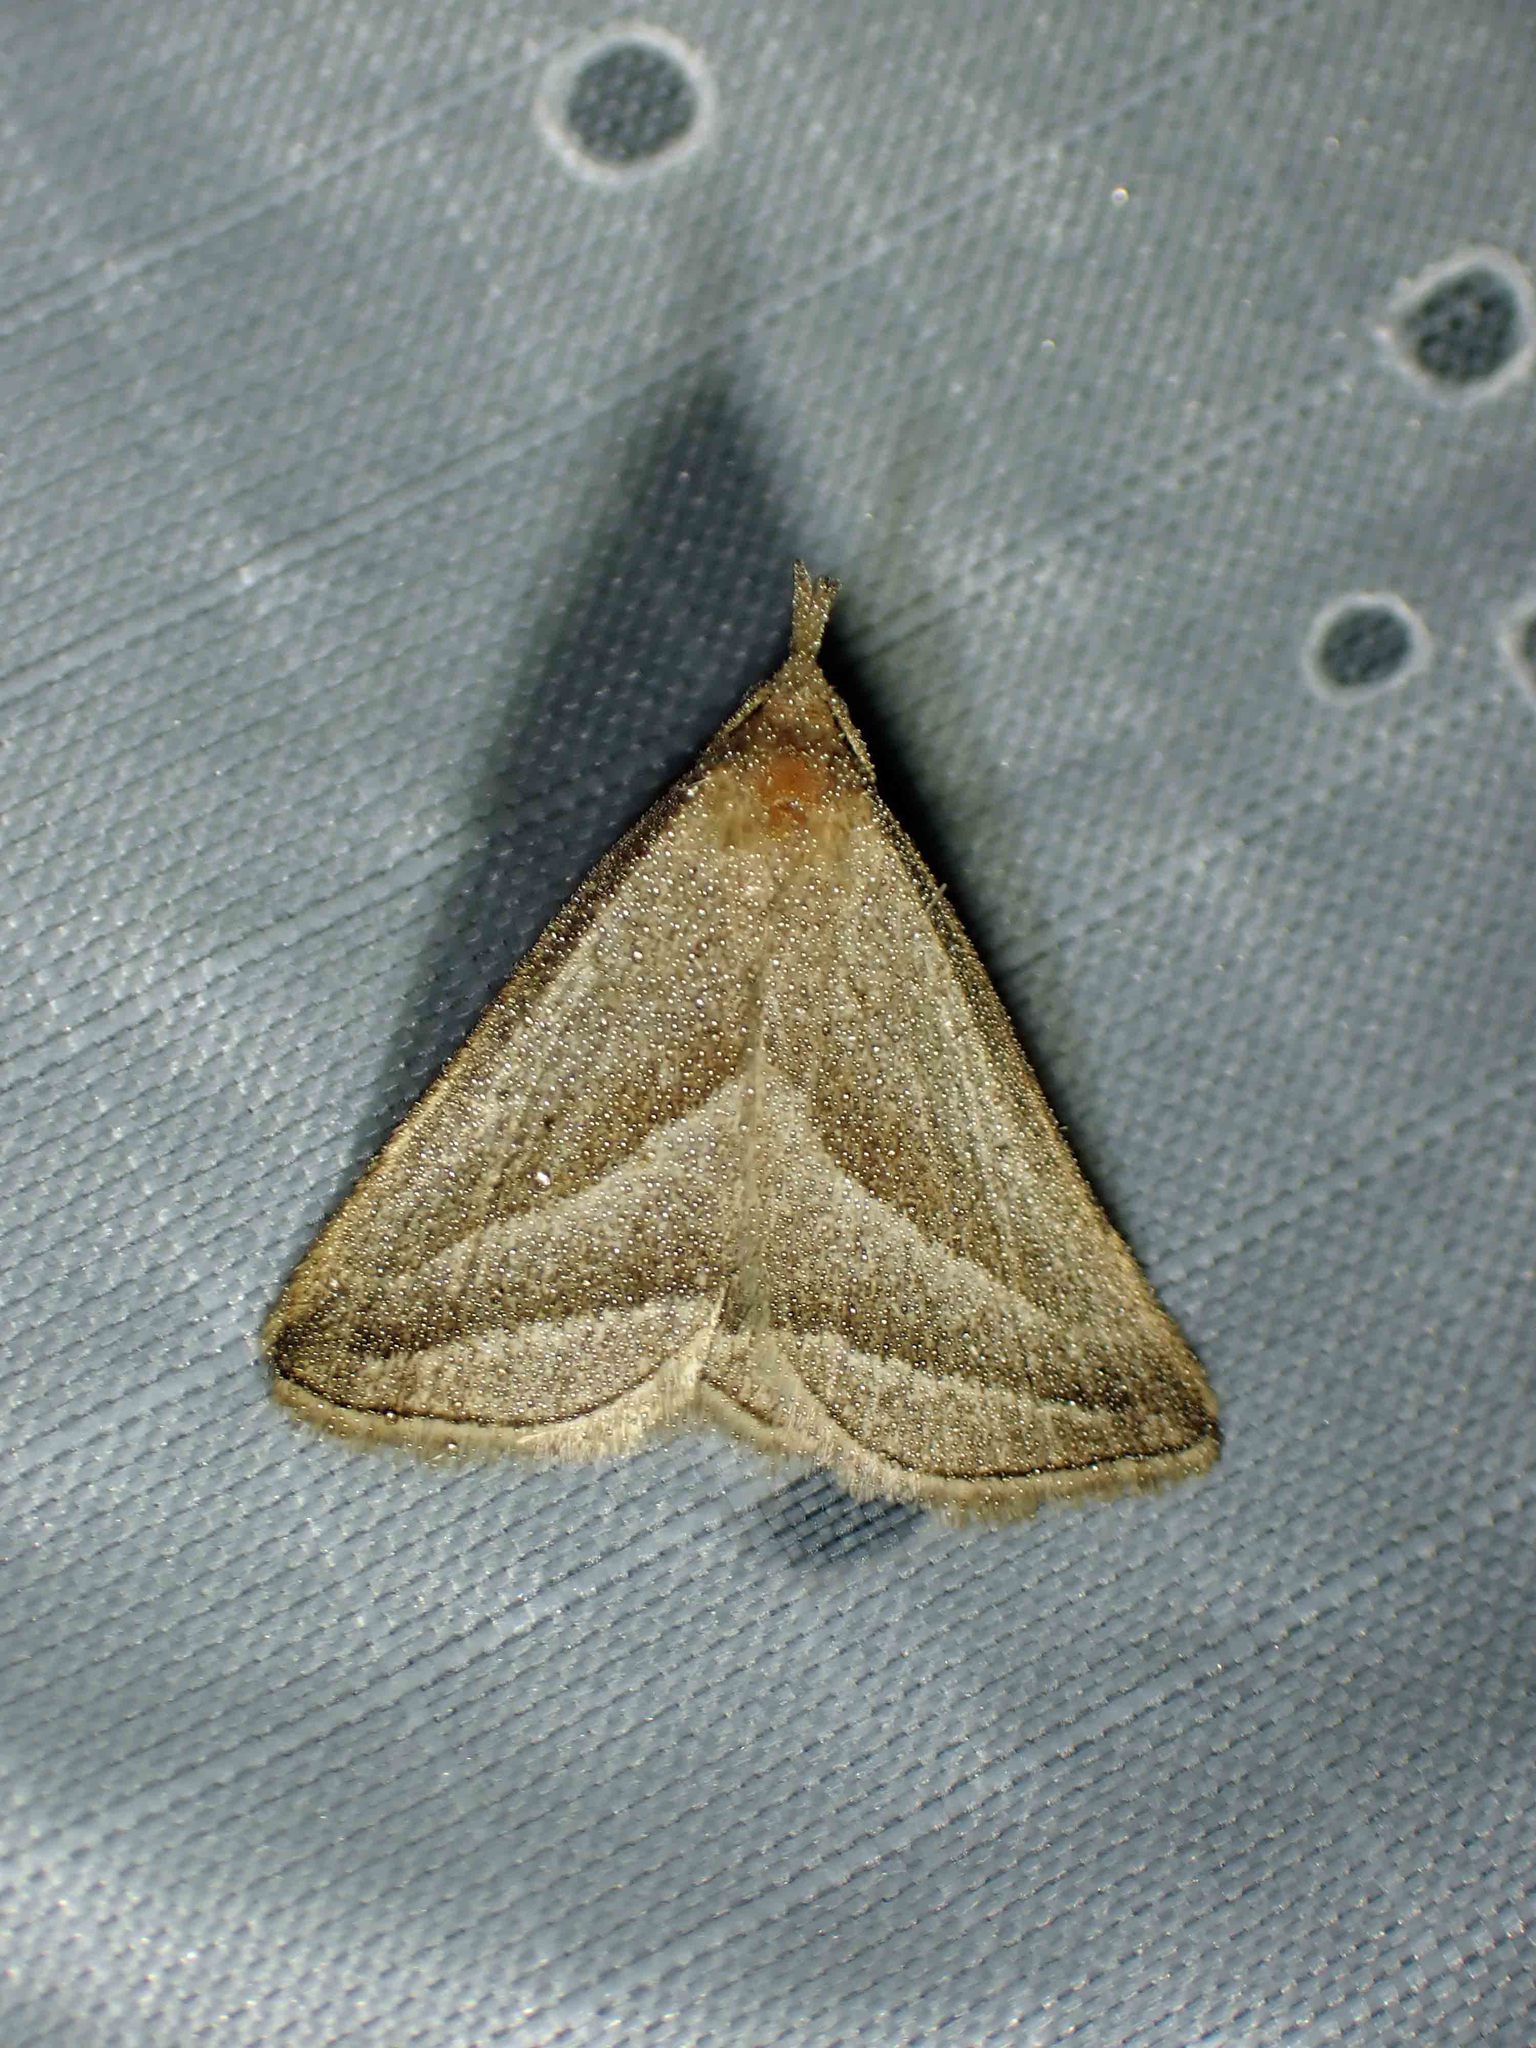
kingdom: Animalia
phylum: Arthropoda
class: Insecta
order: Lepidoptera
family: Erebidae
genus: Macrochilo
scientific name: Macrochilo absorptalis
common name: Slant-lined owlet
